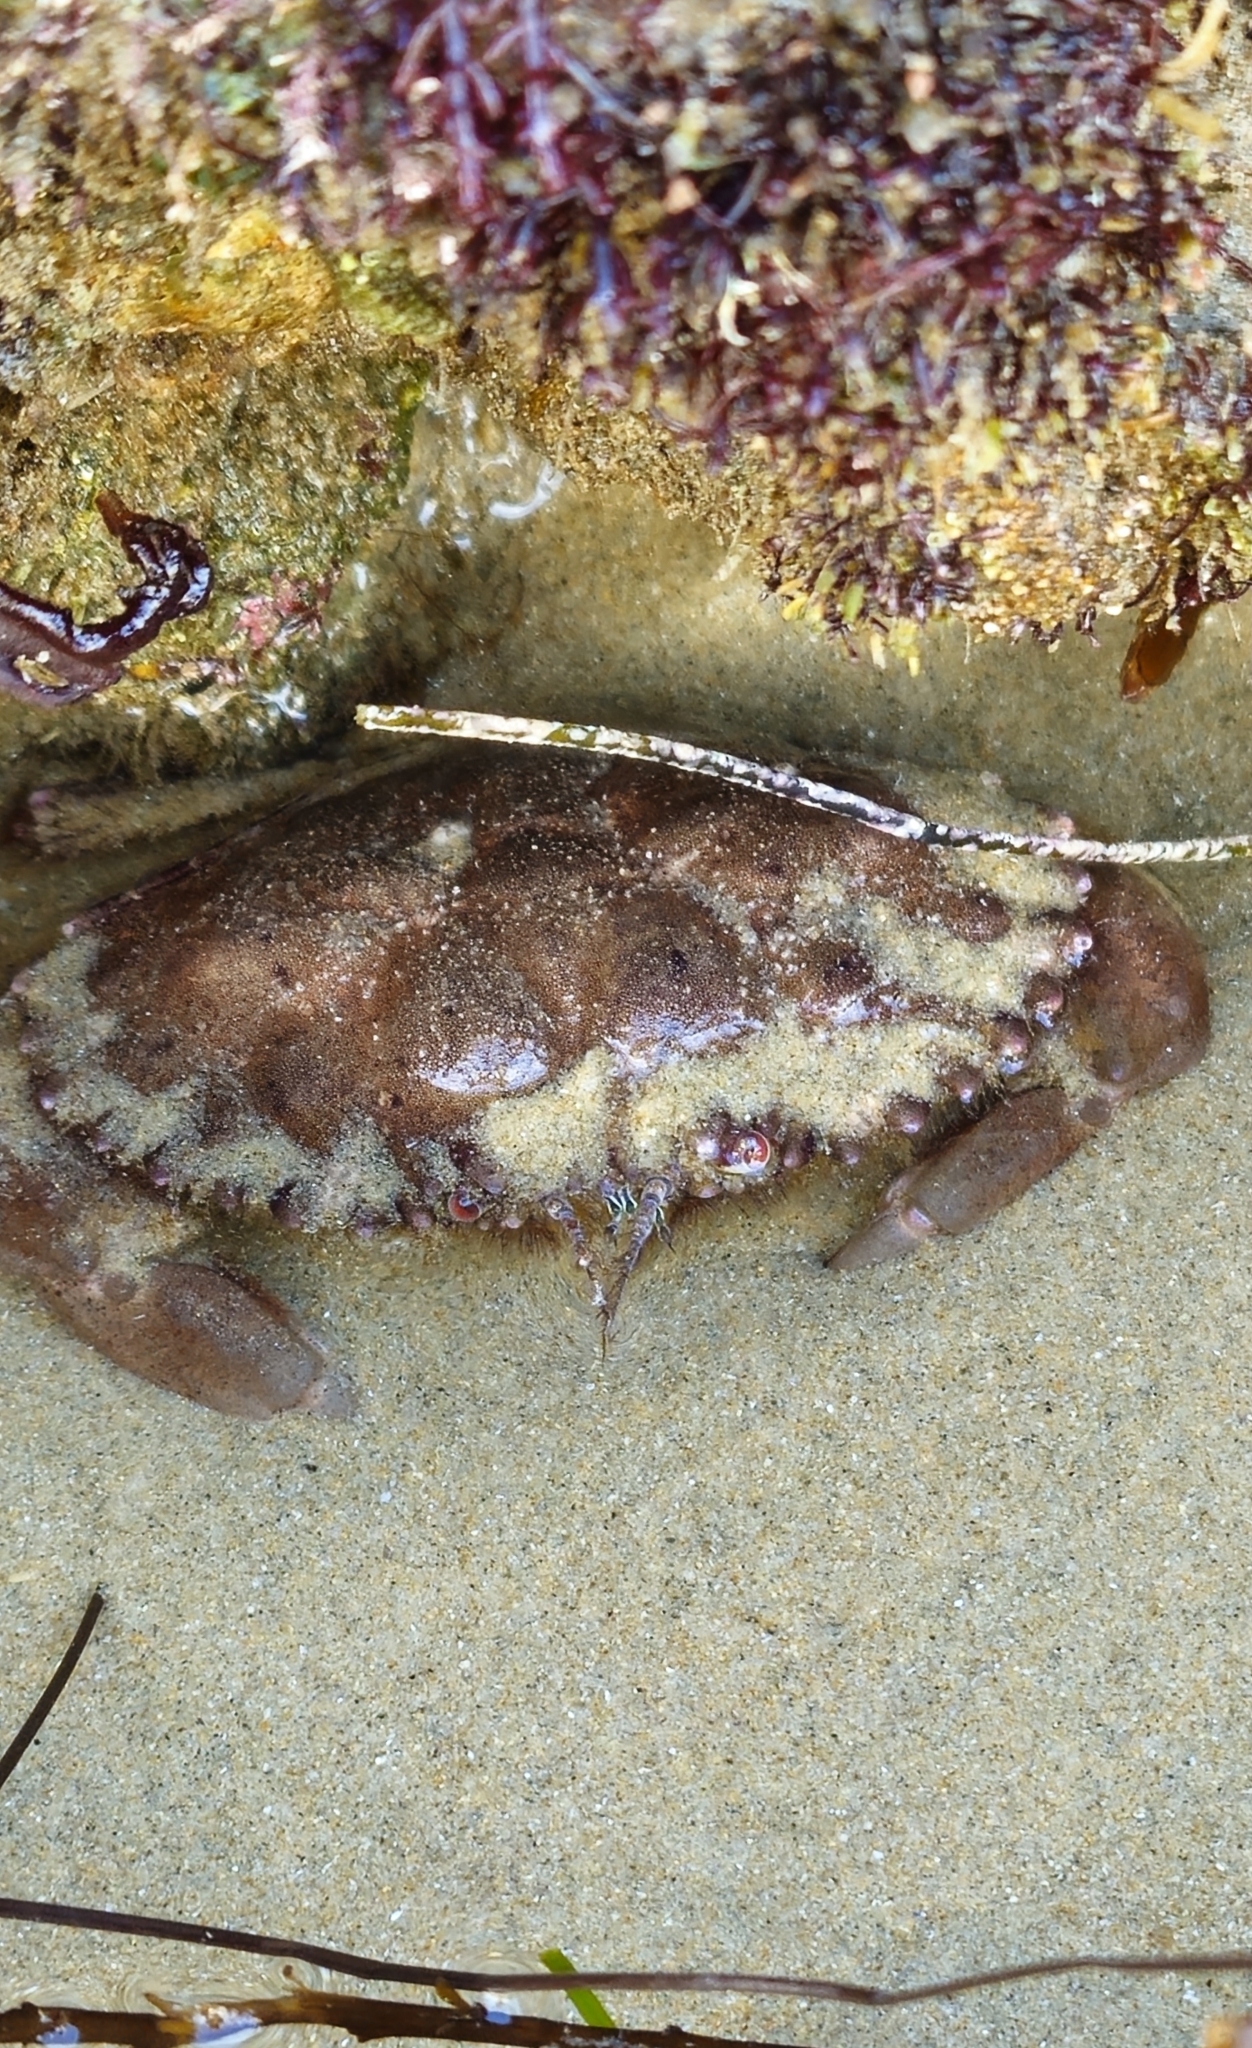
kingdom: Animalia
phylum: Arthropoda
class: Malacostraca
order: Decapoda
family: Cancridae
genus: Romaleon
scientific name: Romaleon antennarium
